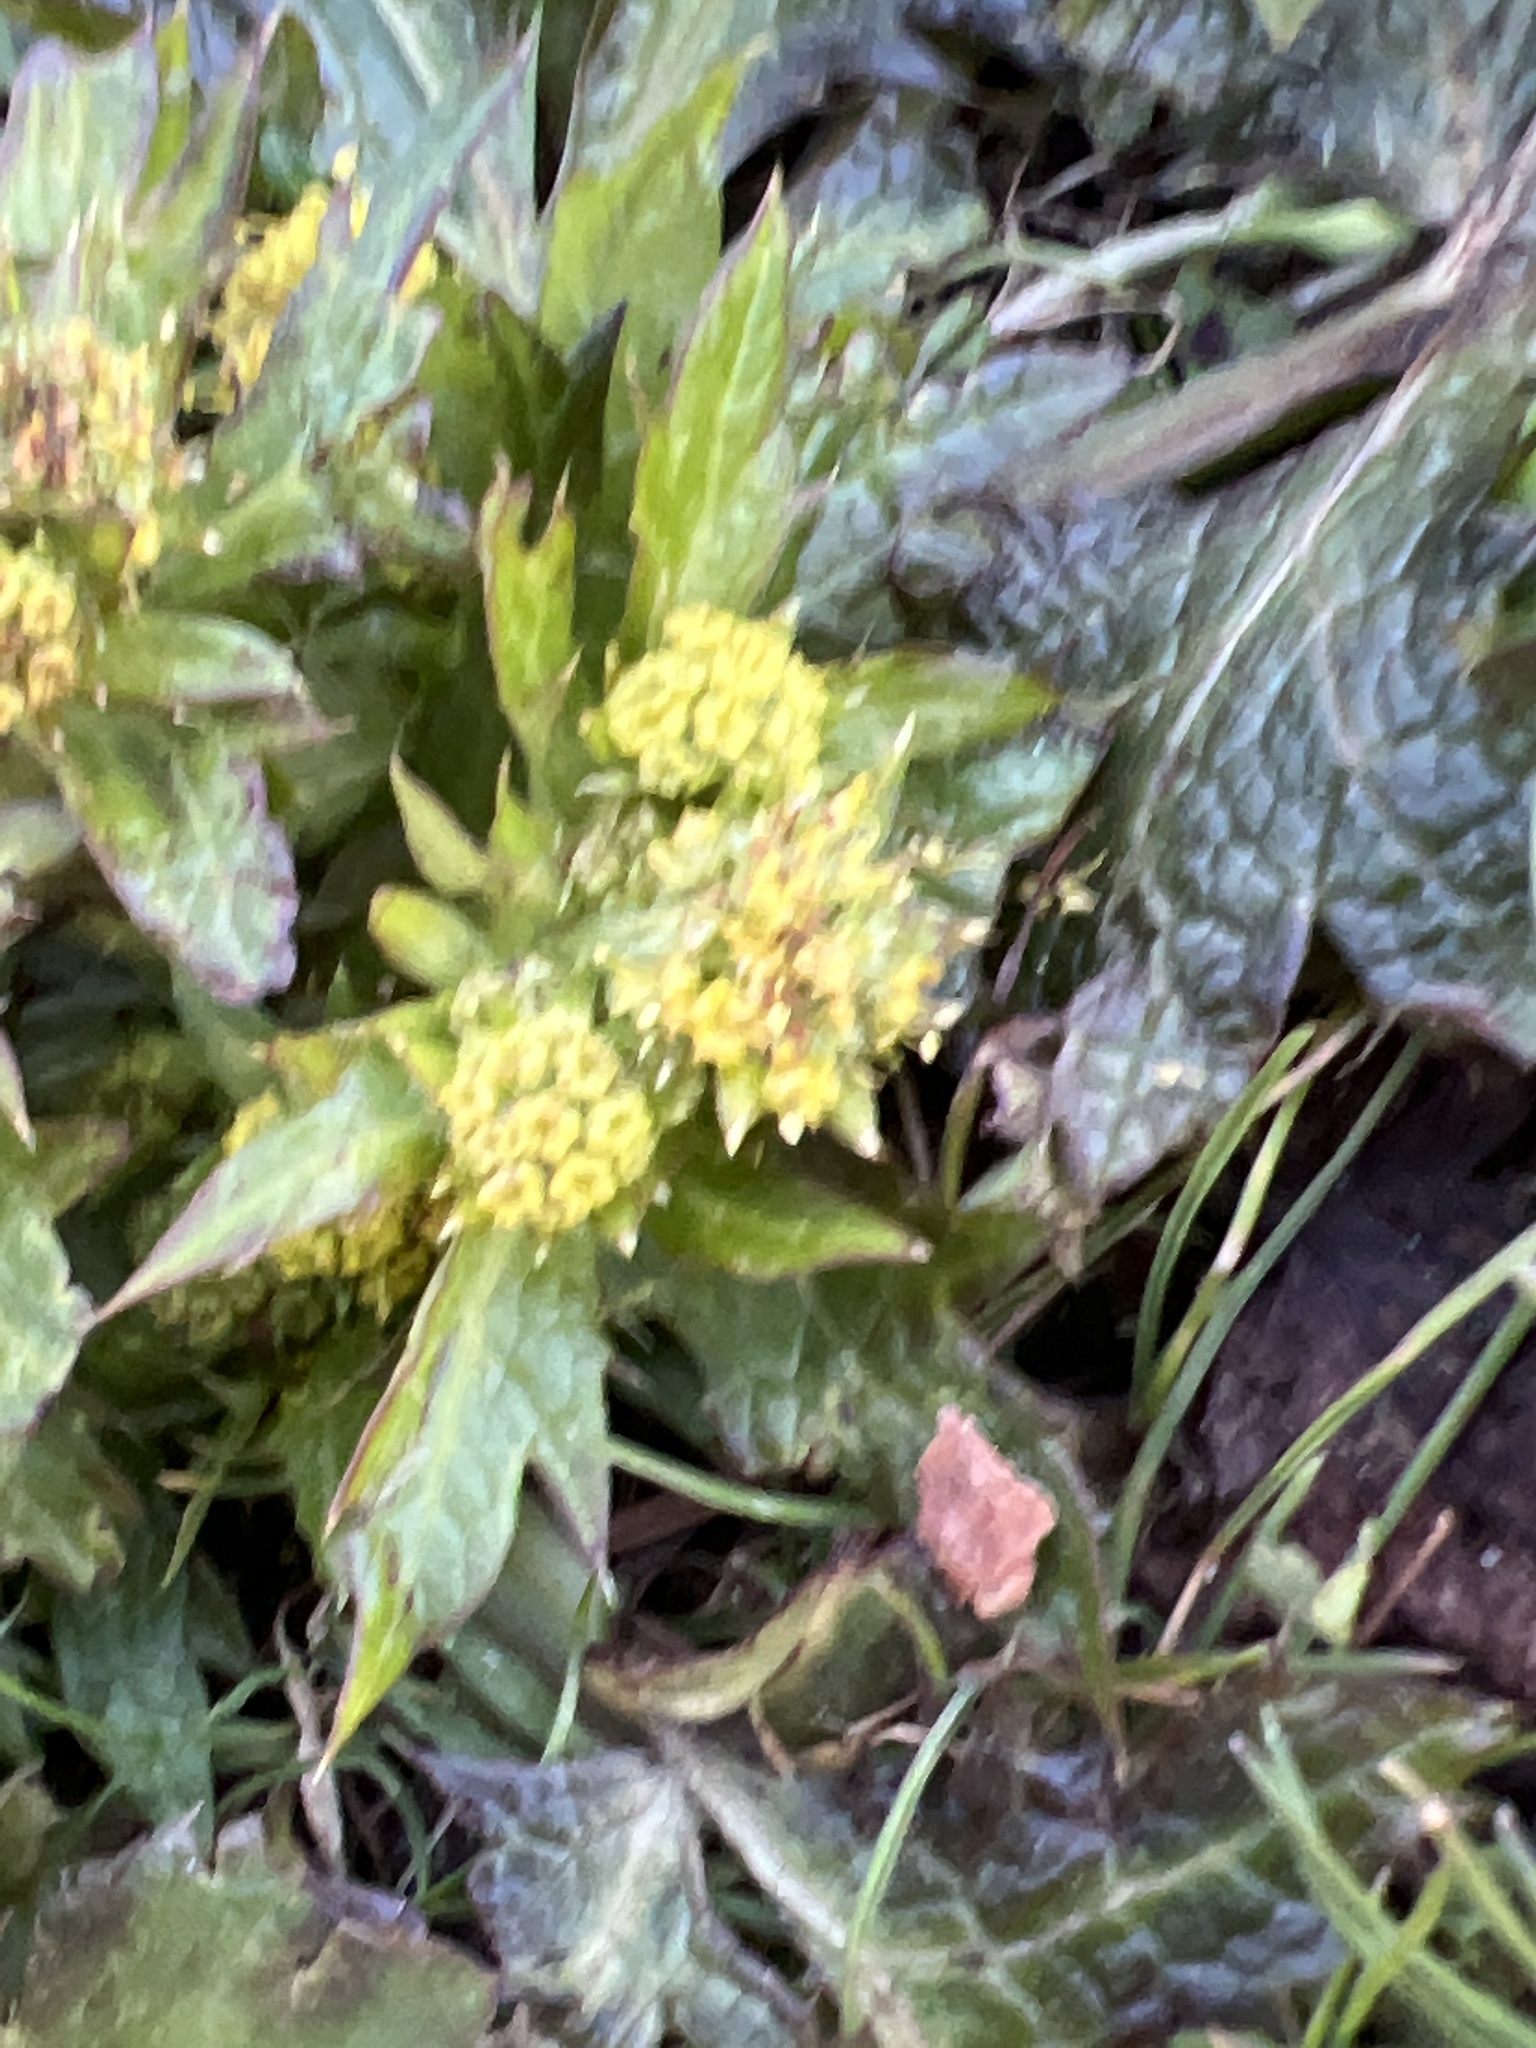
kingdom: Plantae
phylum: Tracheophyta
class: Magnoliopsida
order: Apiales
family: Apiaceae
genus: Sanicula
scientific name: Sanicula crassicaulis
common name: Western snakeroot
